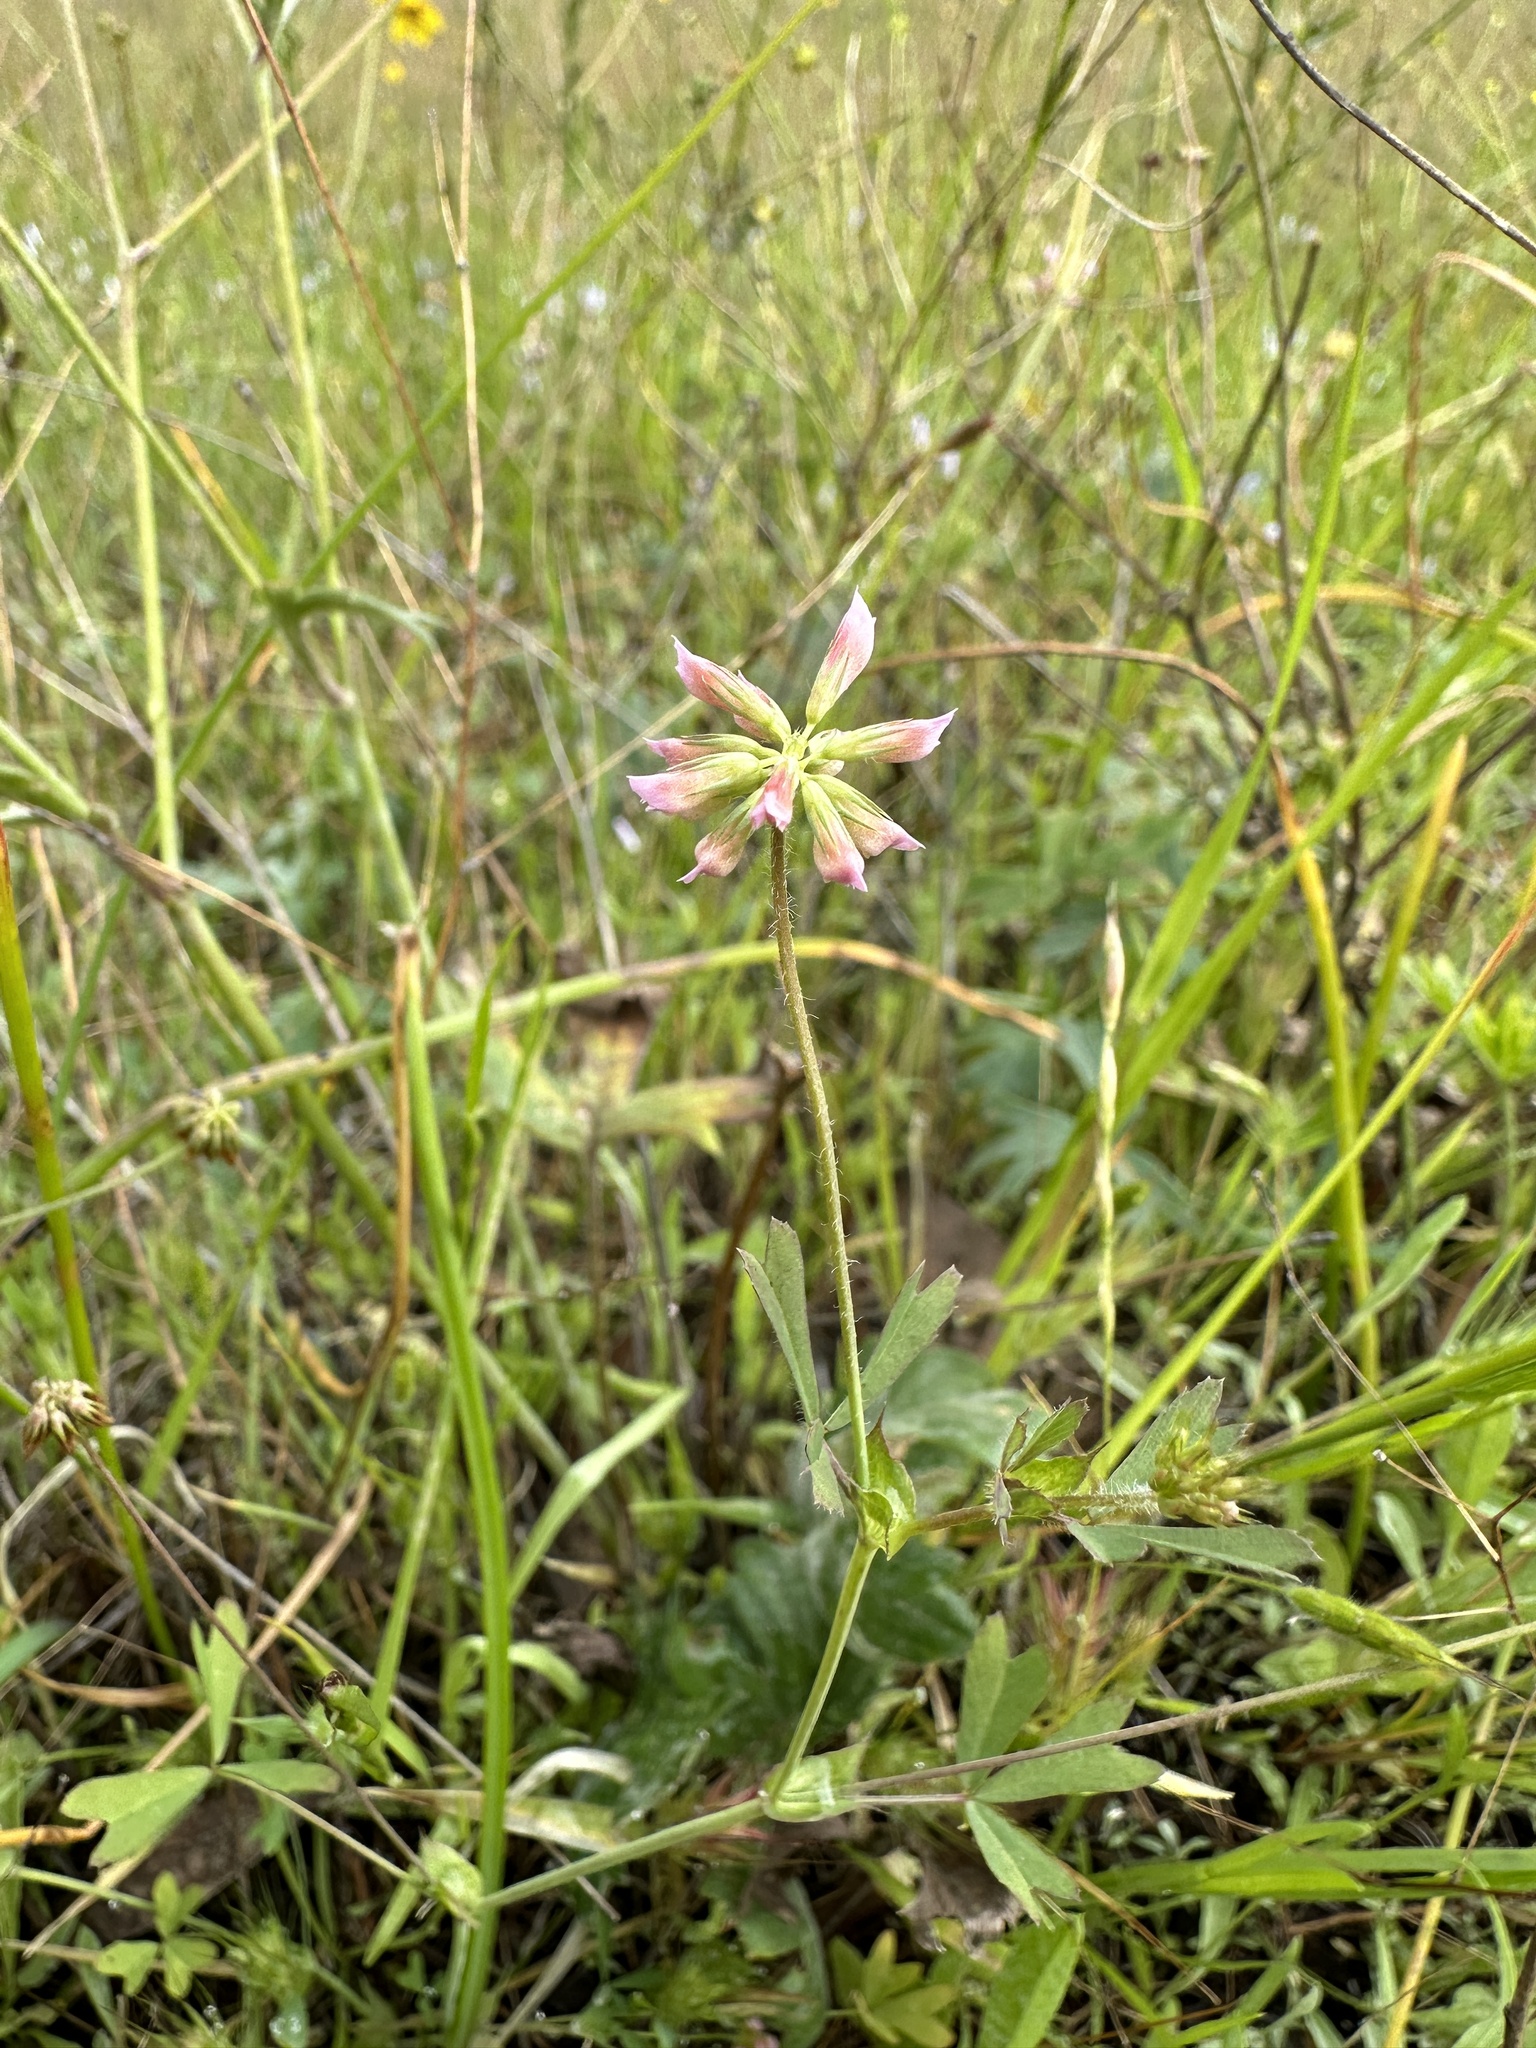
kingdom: Plantae
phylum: Tracheophyta
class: Magnoliopsida
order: Fabales
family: Fabaceae
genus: Trifolium
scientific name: Trifolium bifidum
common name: Notch-leaf clover
